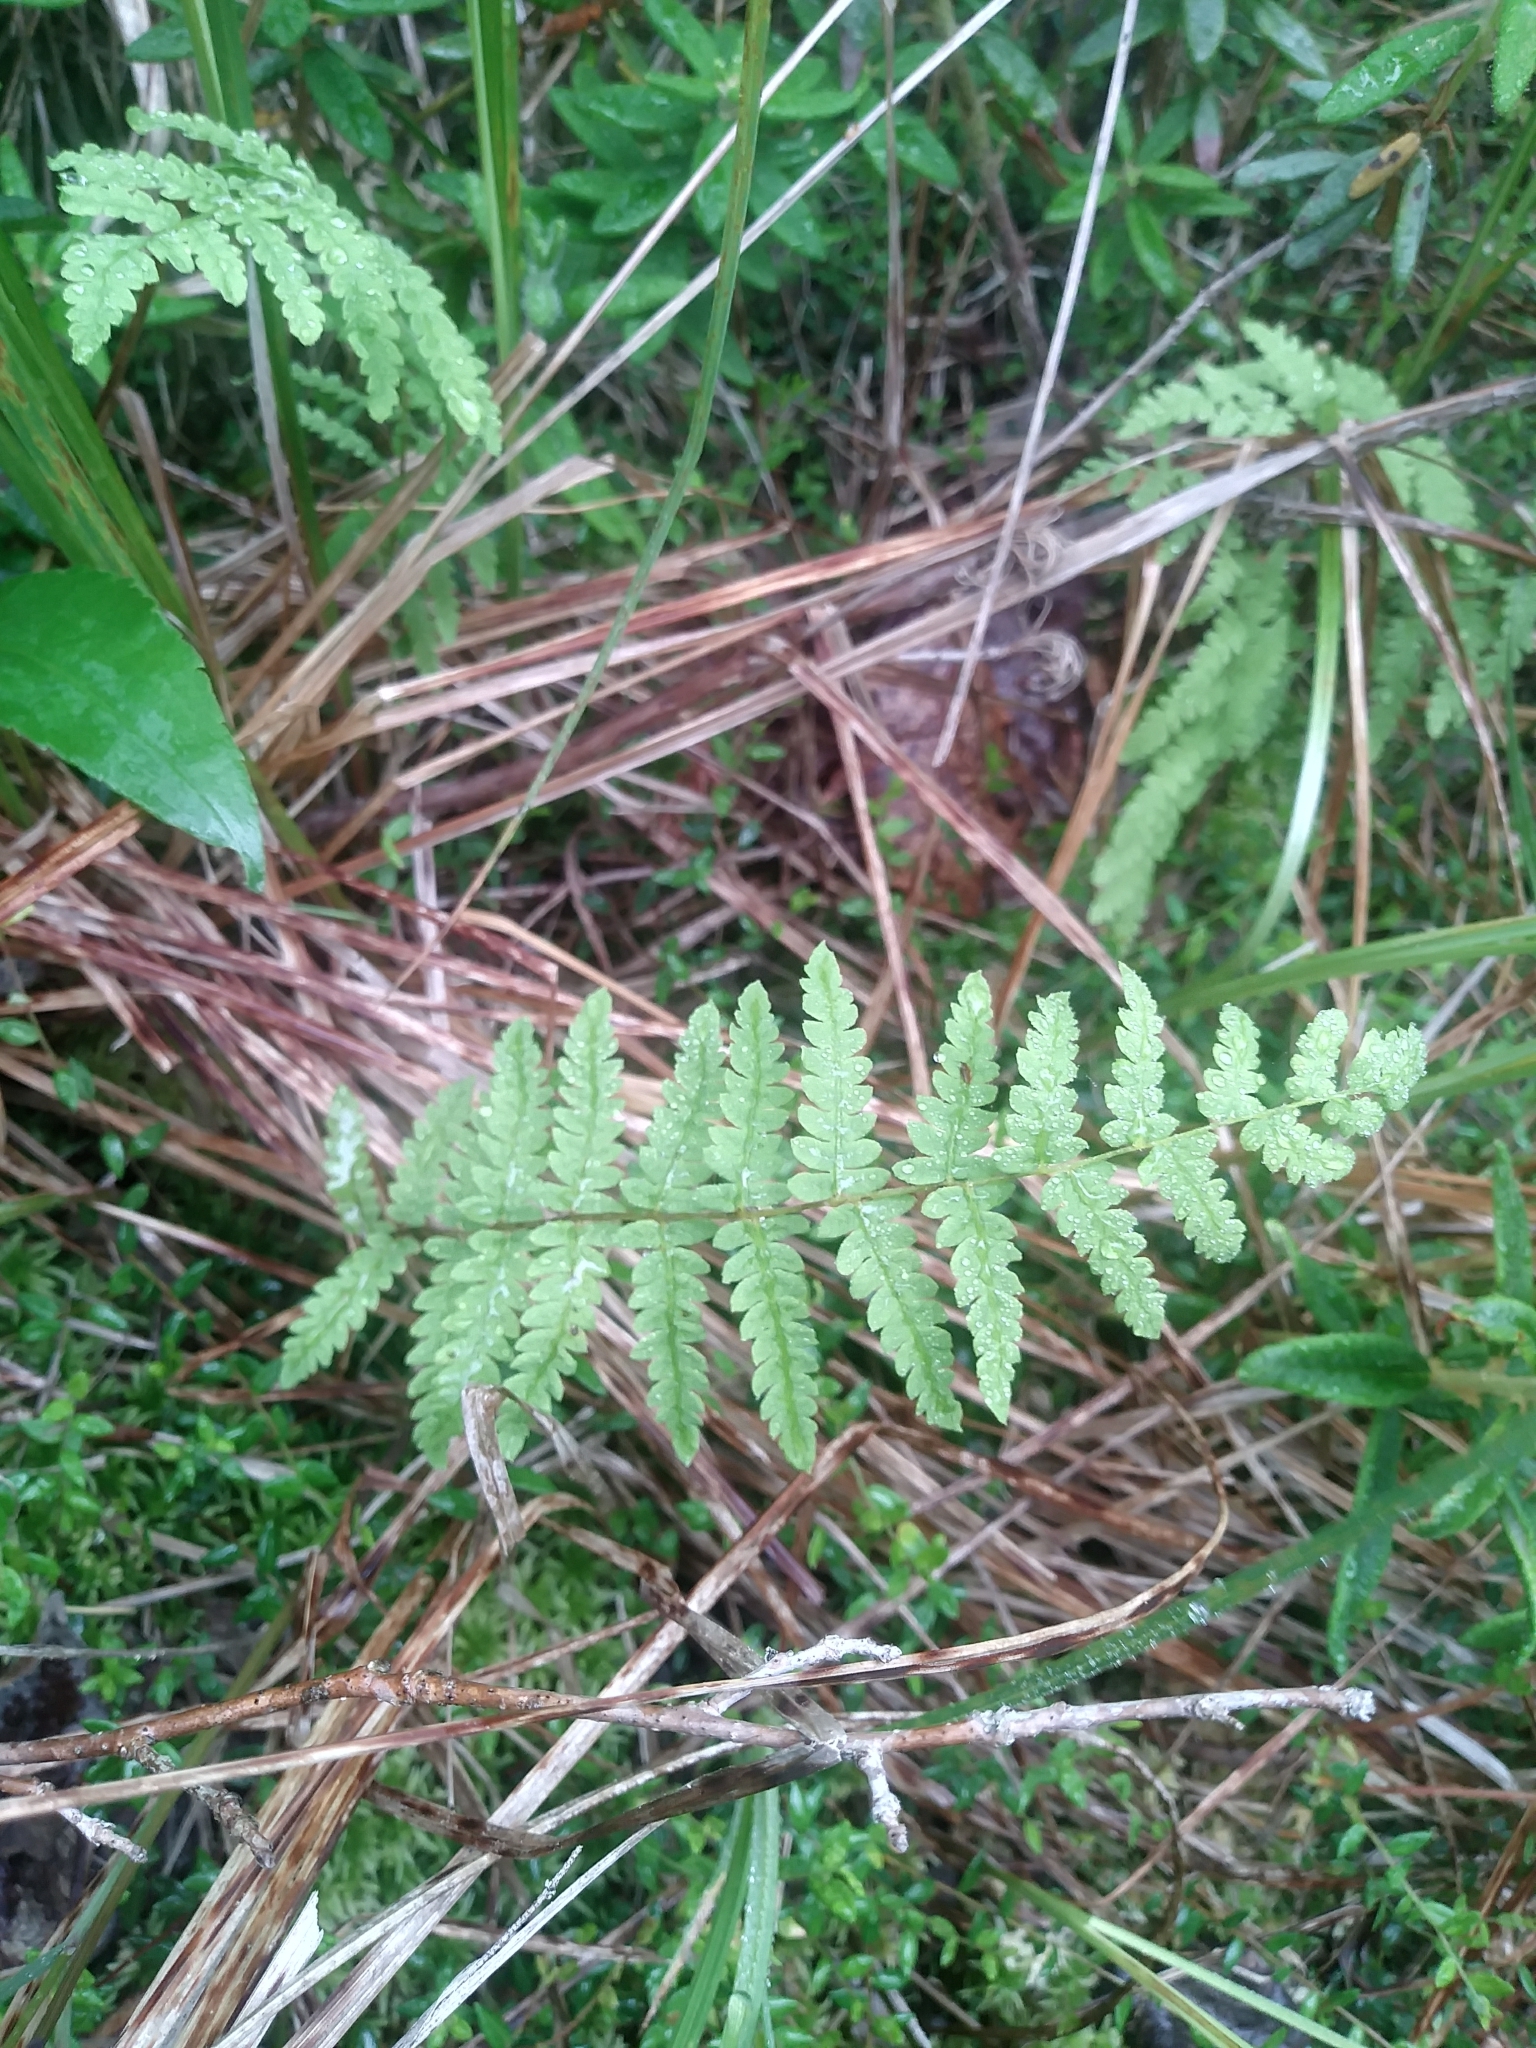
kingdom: Plantae
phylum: Tracheophyta
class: Polypodiopsida
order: Polypodiales
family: Thelypteridaceae
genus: Thelypteris
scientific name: Thelypteris palustris
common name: Marsh fern
